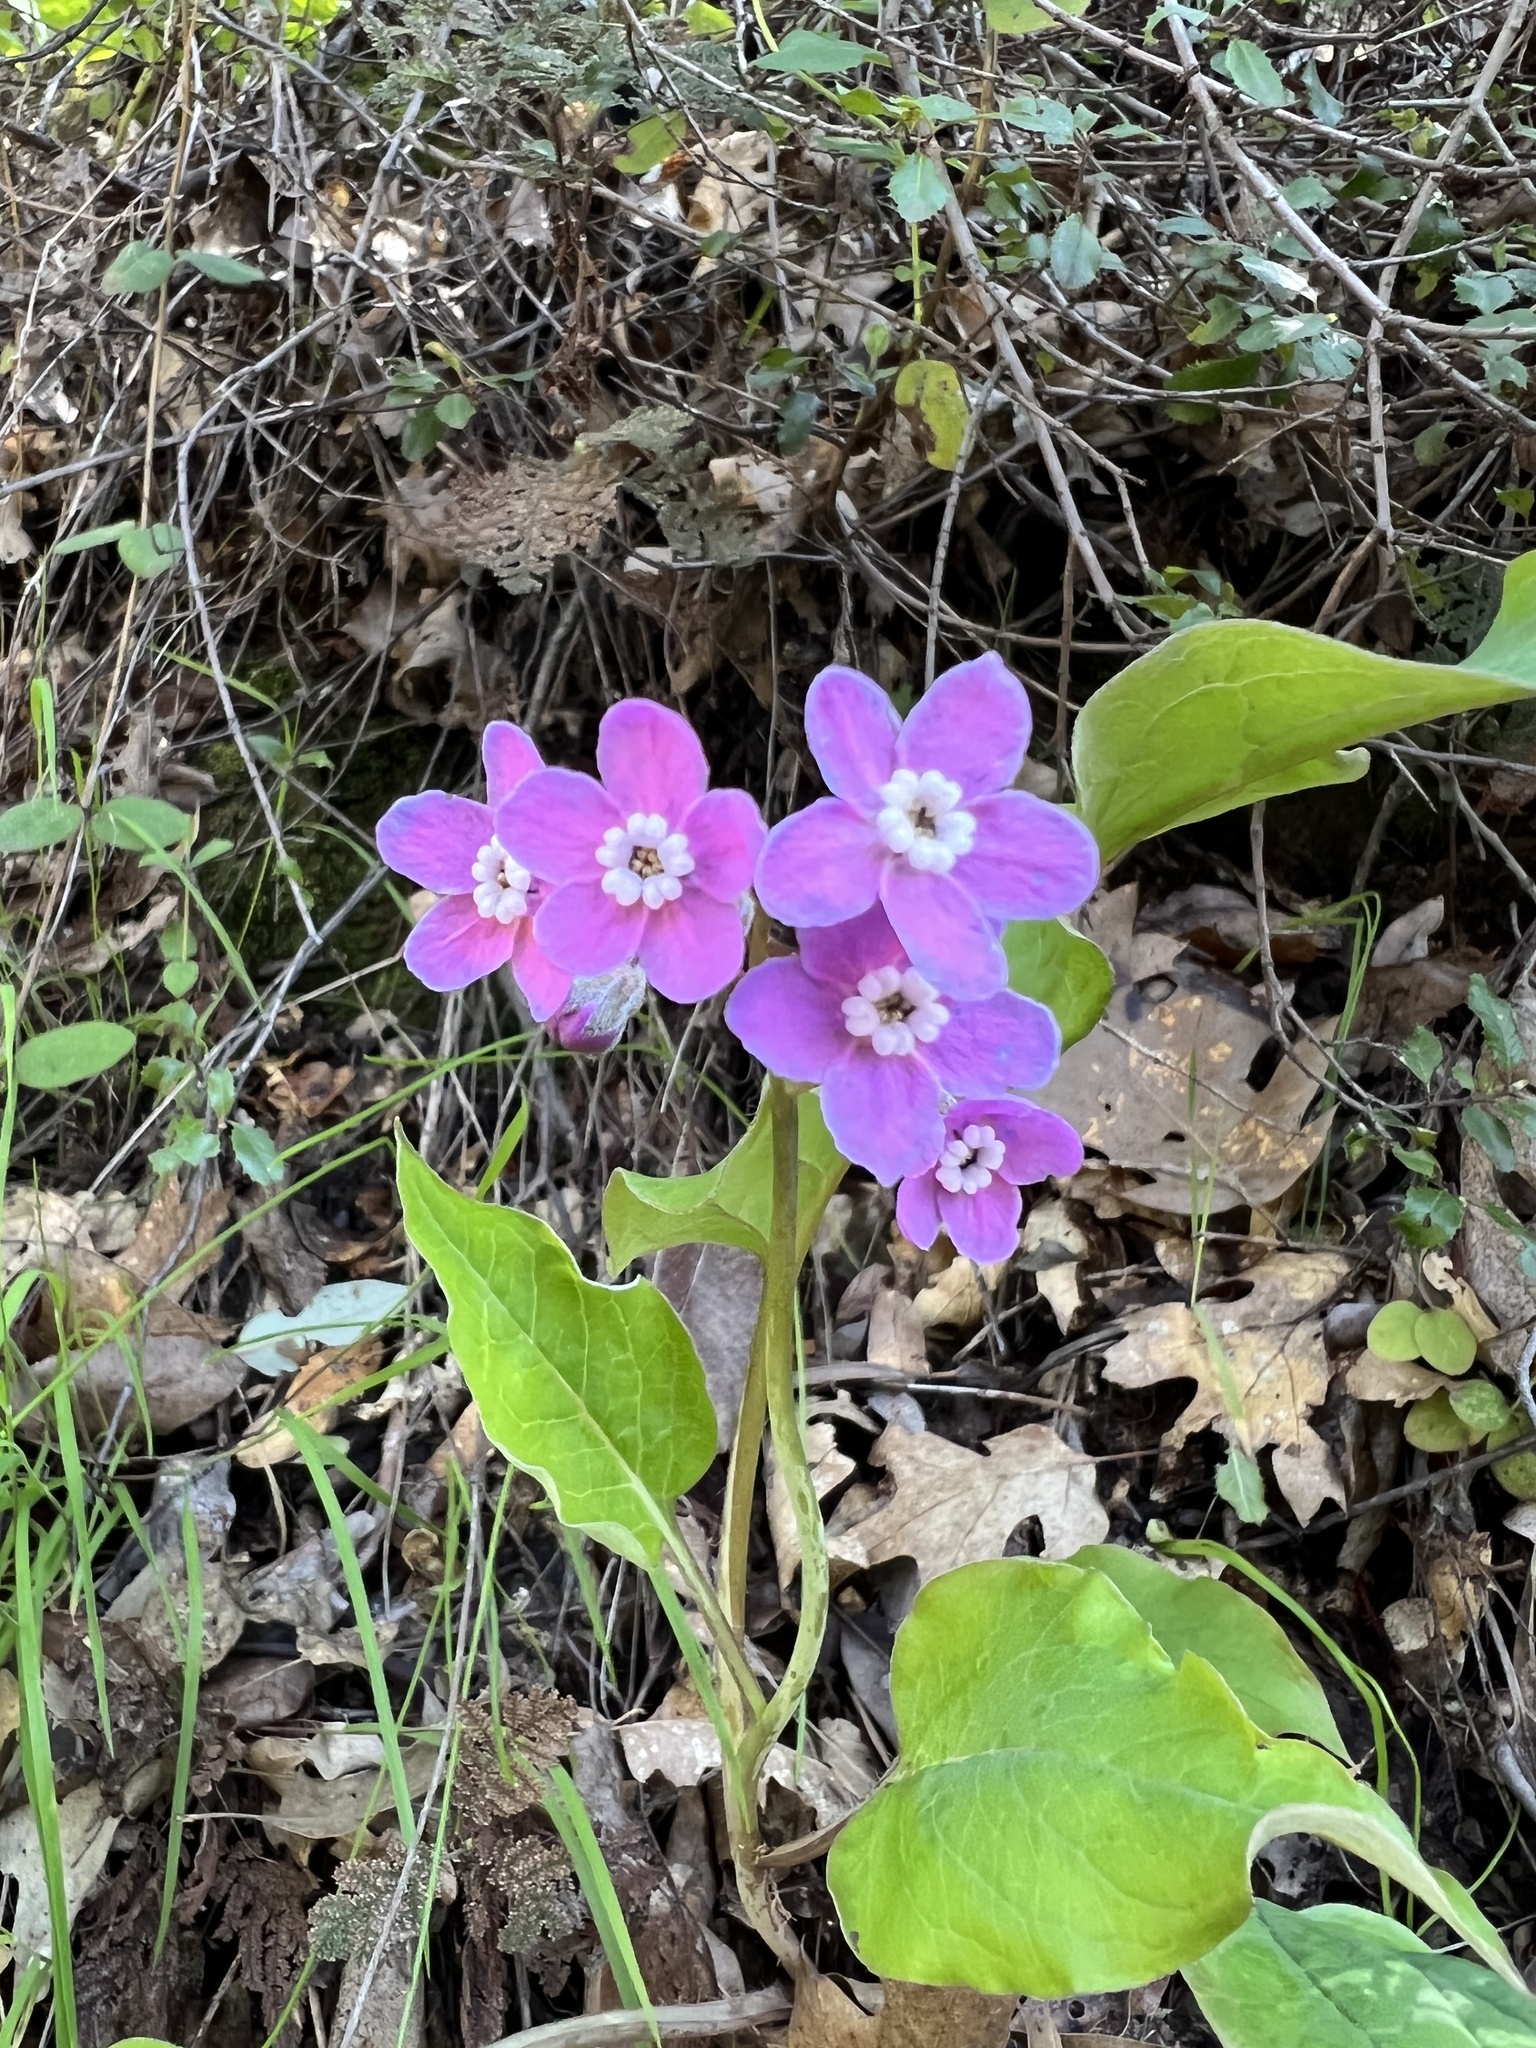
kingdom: Plantae
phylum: Tracheophyta
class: Magnoliopsida
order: Boraginales
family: Boraginaceae
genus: Adelinia
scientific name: Adelinia grande
